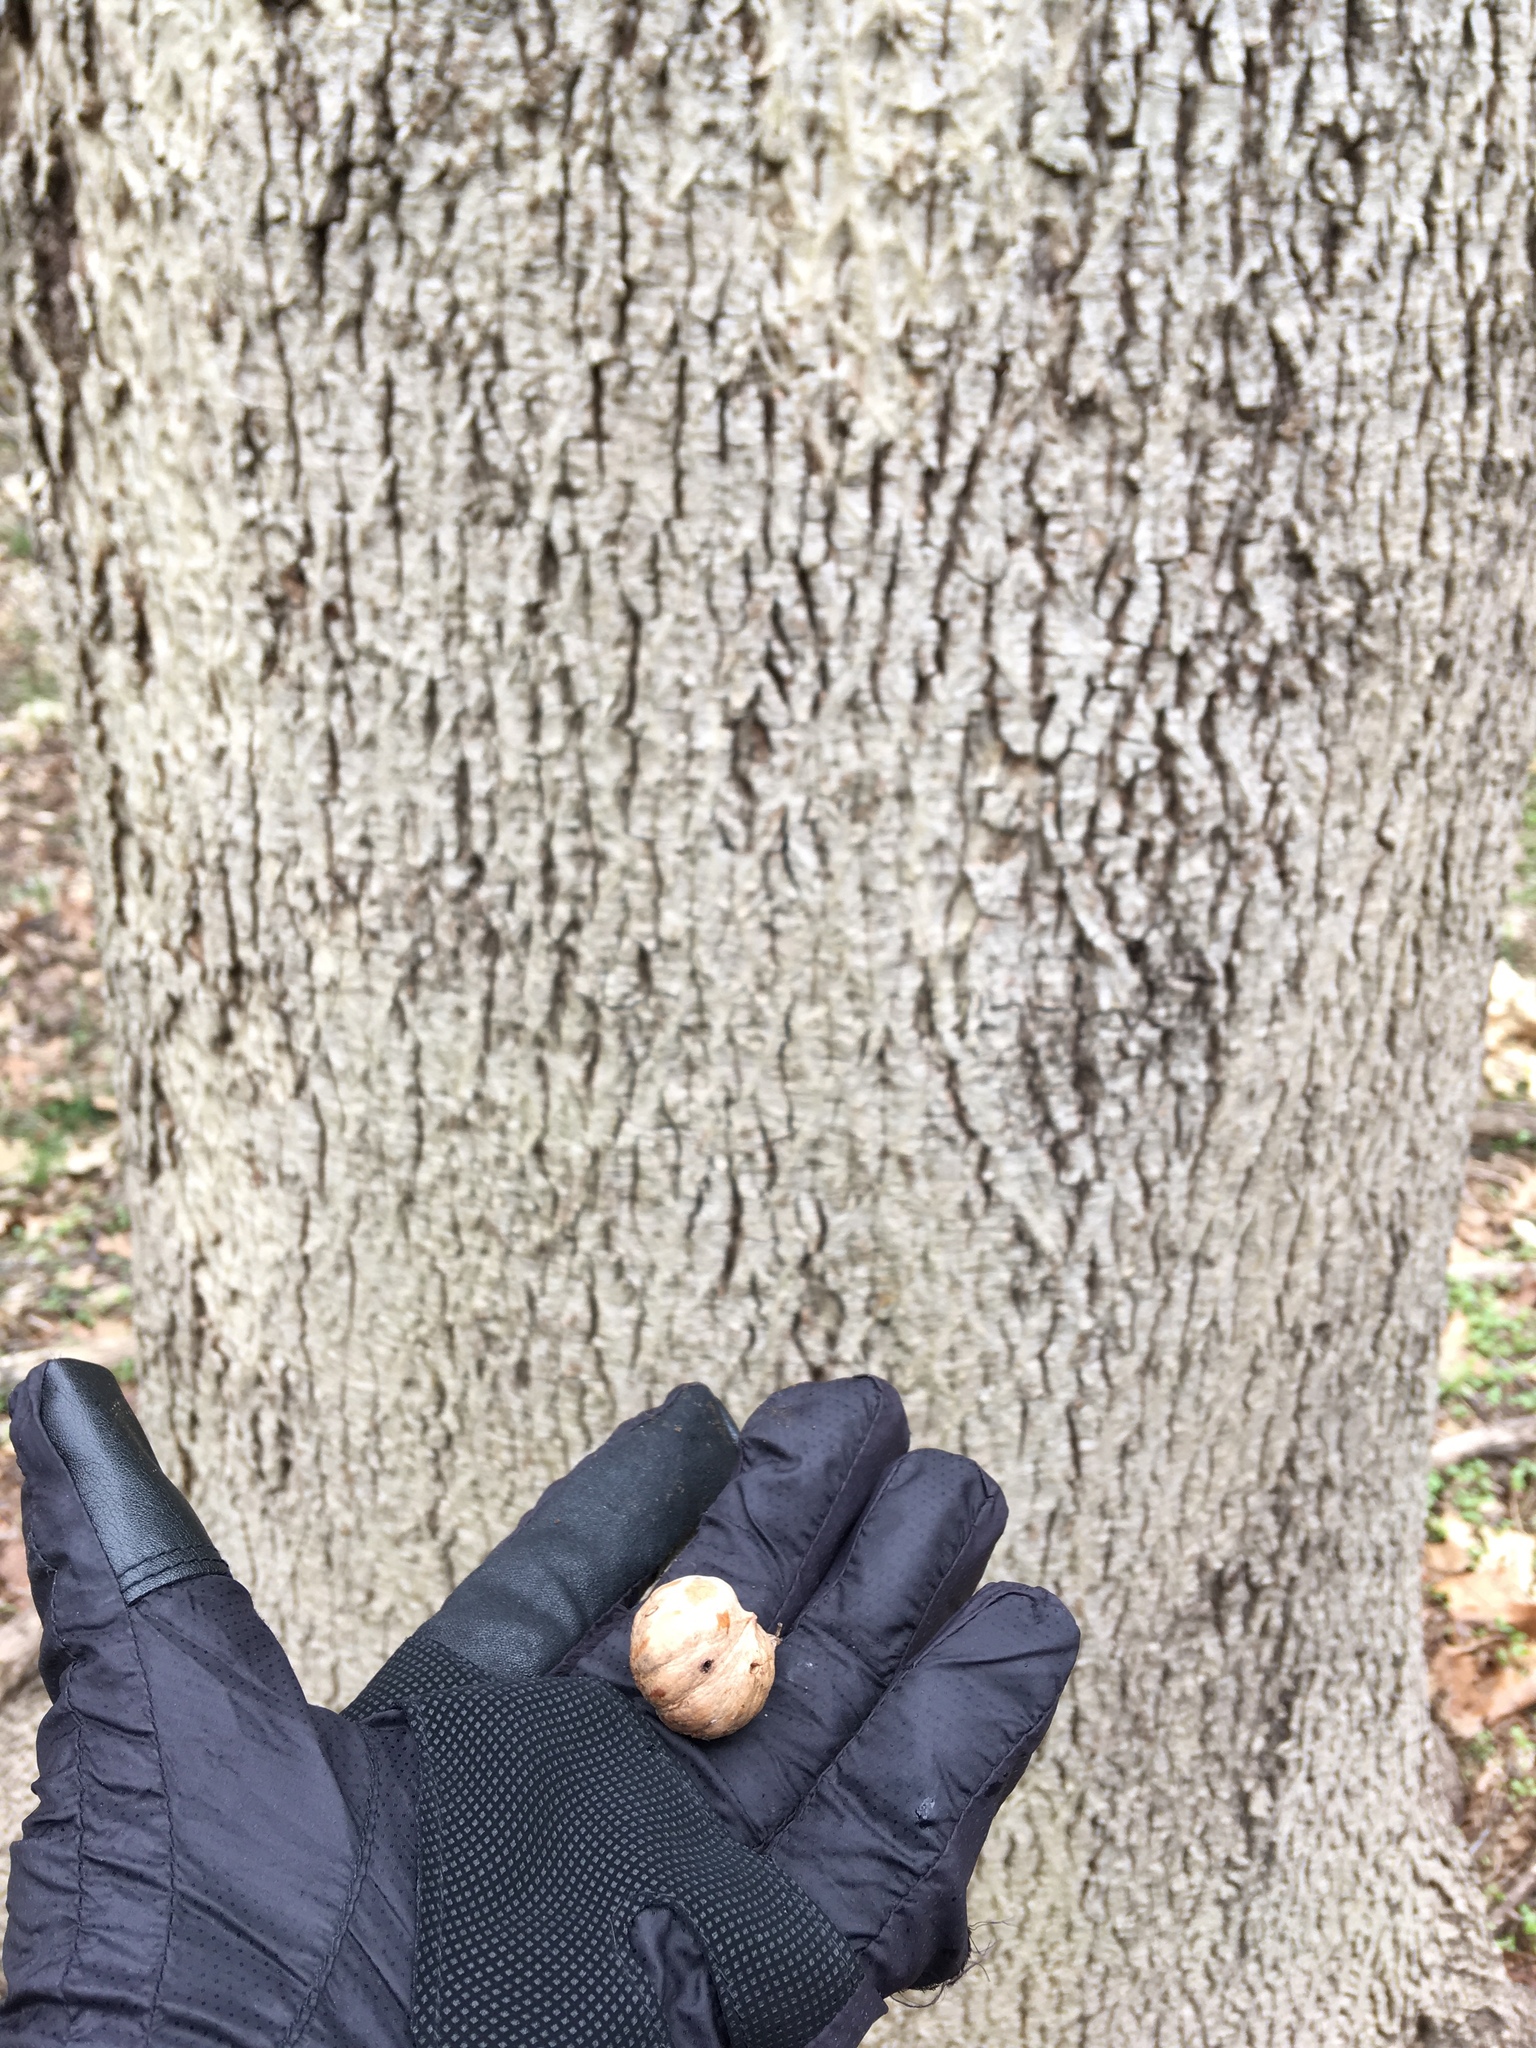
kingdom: Plantae
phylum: Tracheophyta
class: Magnoliopsida
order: Fagales
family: Juglandaceae
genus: Carya
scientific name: Carya cordiformis
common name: Bitternut hickory
